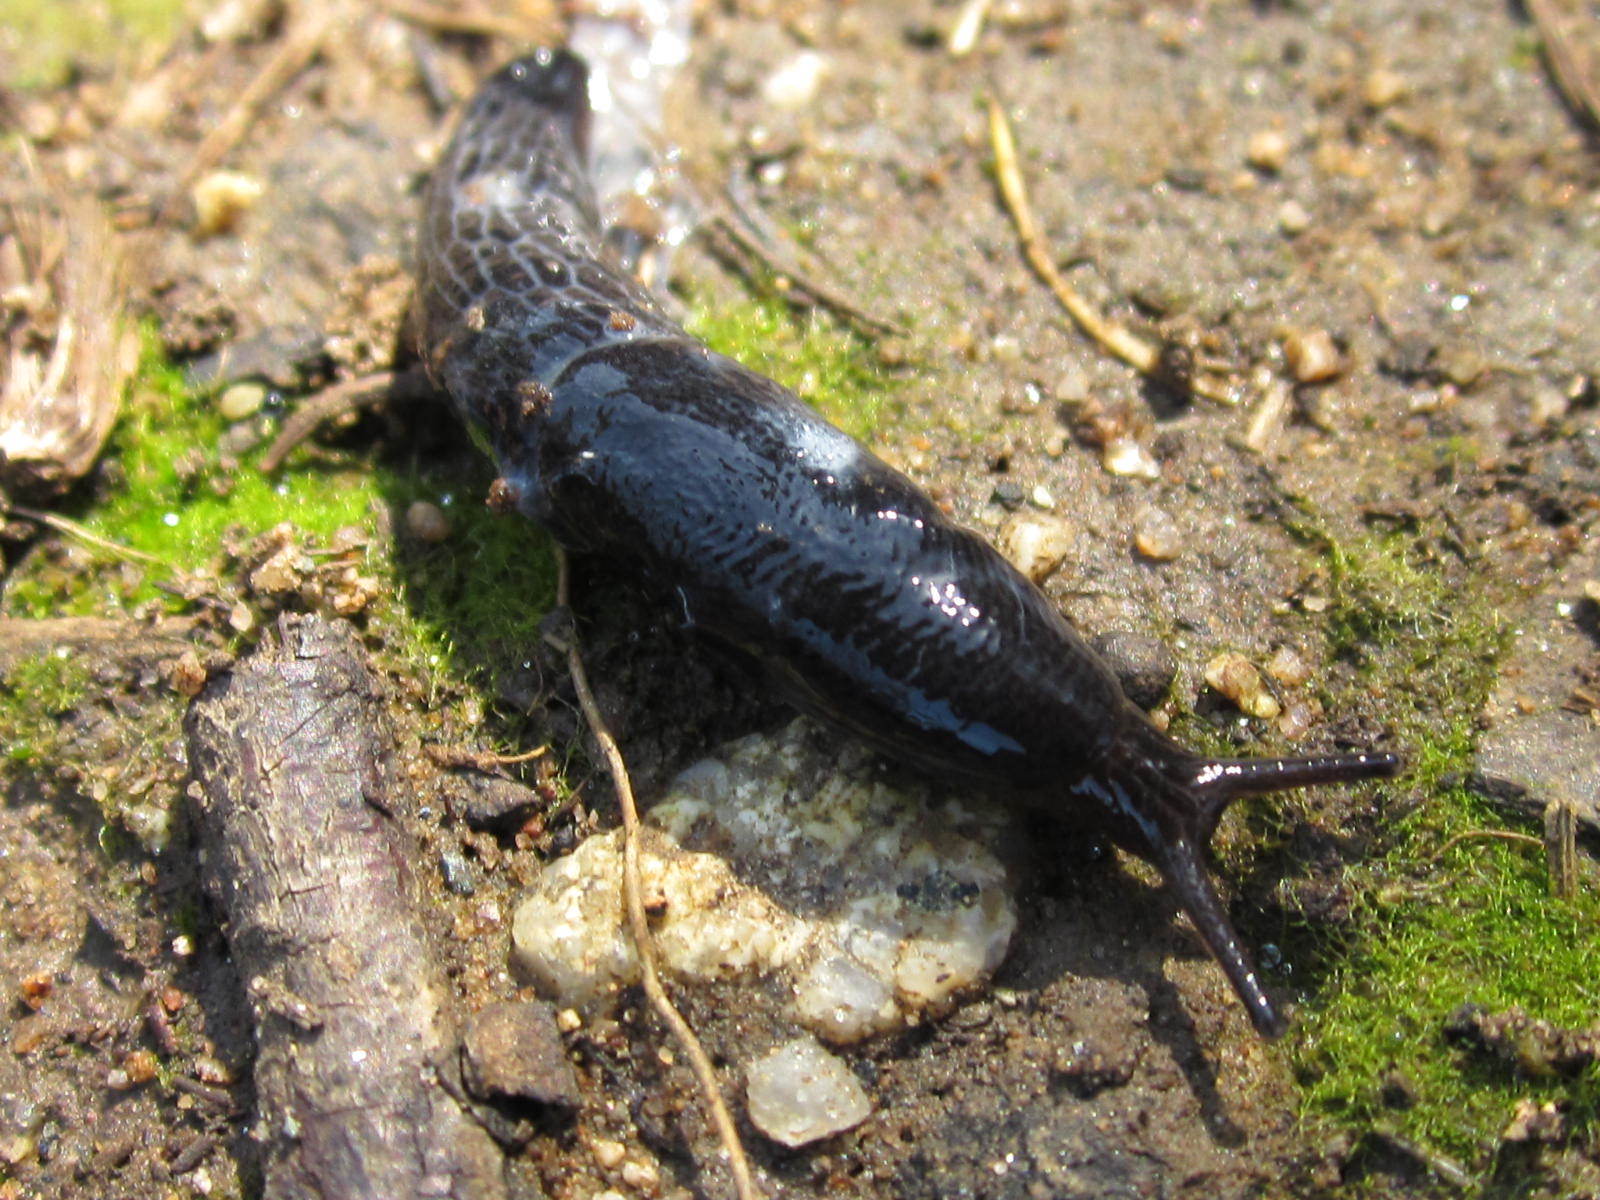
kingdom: Animalia
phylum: Mollusca
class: Gastropoda
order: Stylommatophora
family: Agriolimacidae
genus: Deroceras
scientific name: Deroceras laeve
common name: Marsh slug
